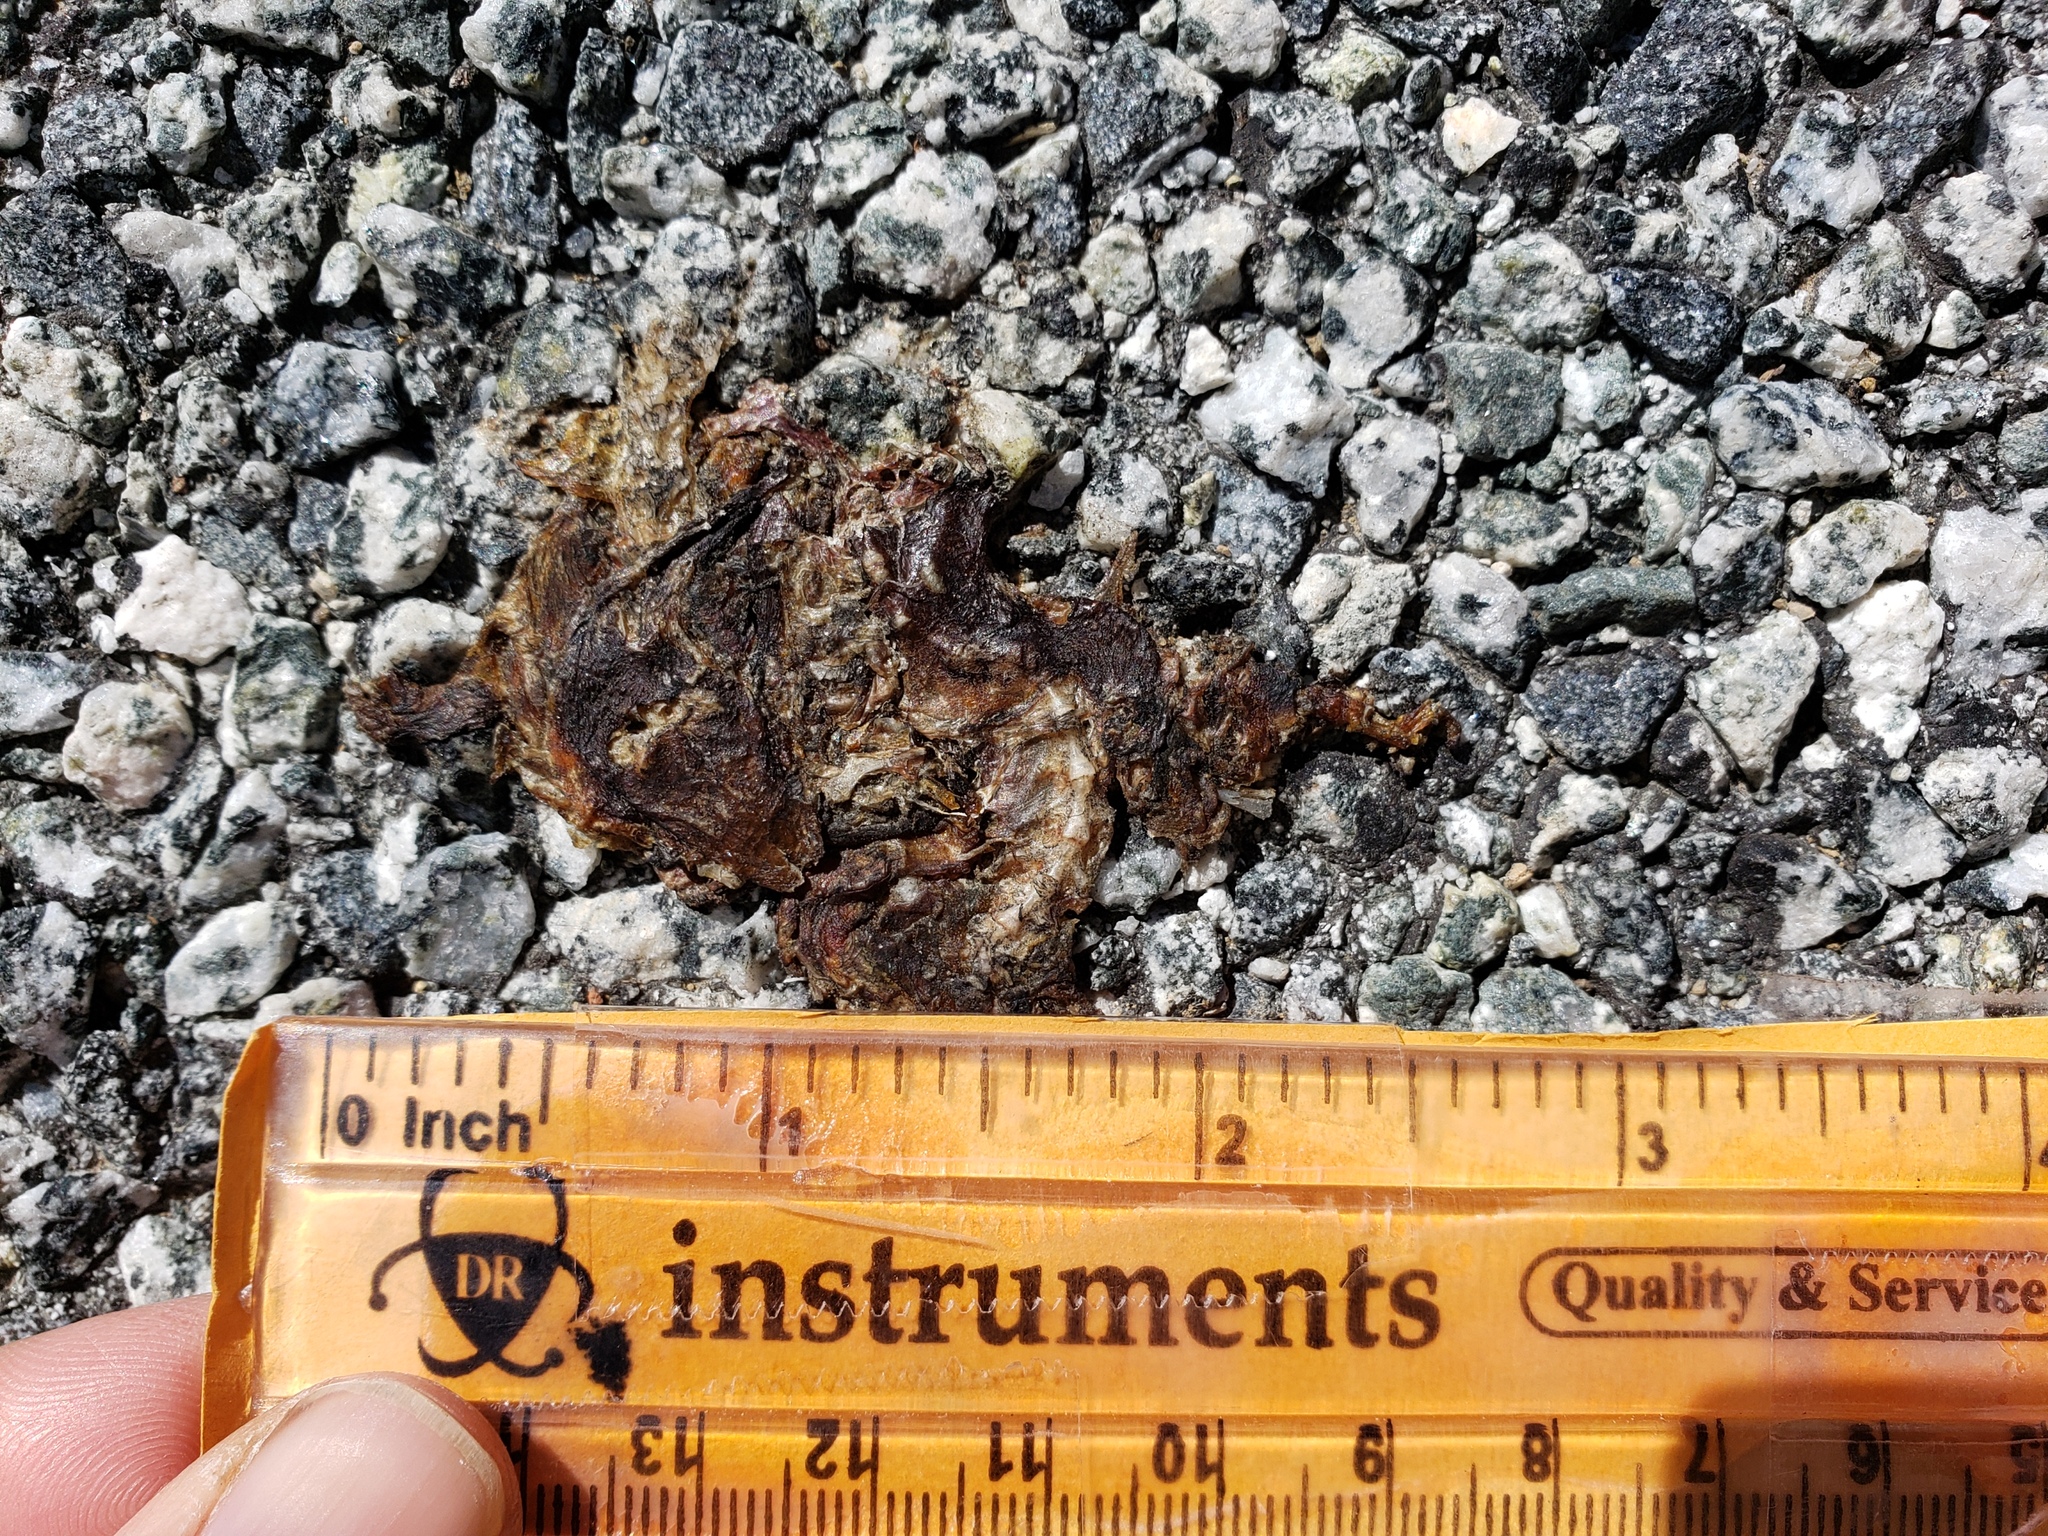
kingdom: Animalia
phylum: Chordata
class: Amphibia
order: Caudata
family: Salamandridae
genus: Taricha
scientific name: Taricha
